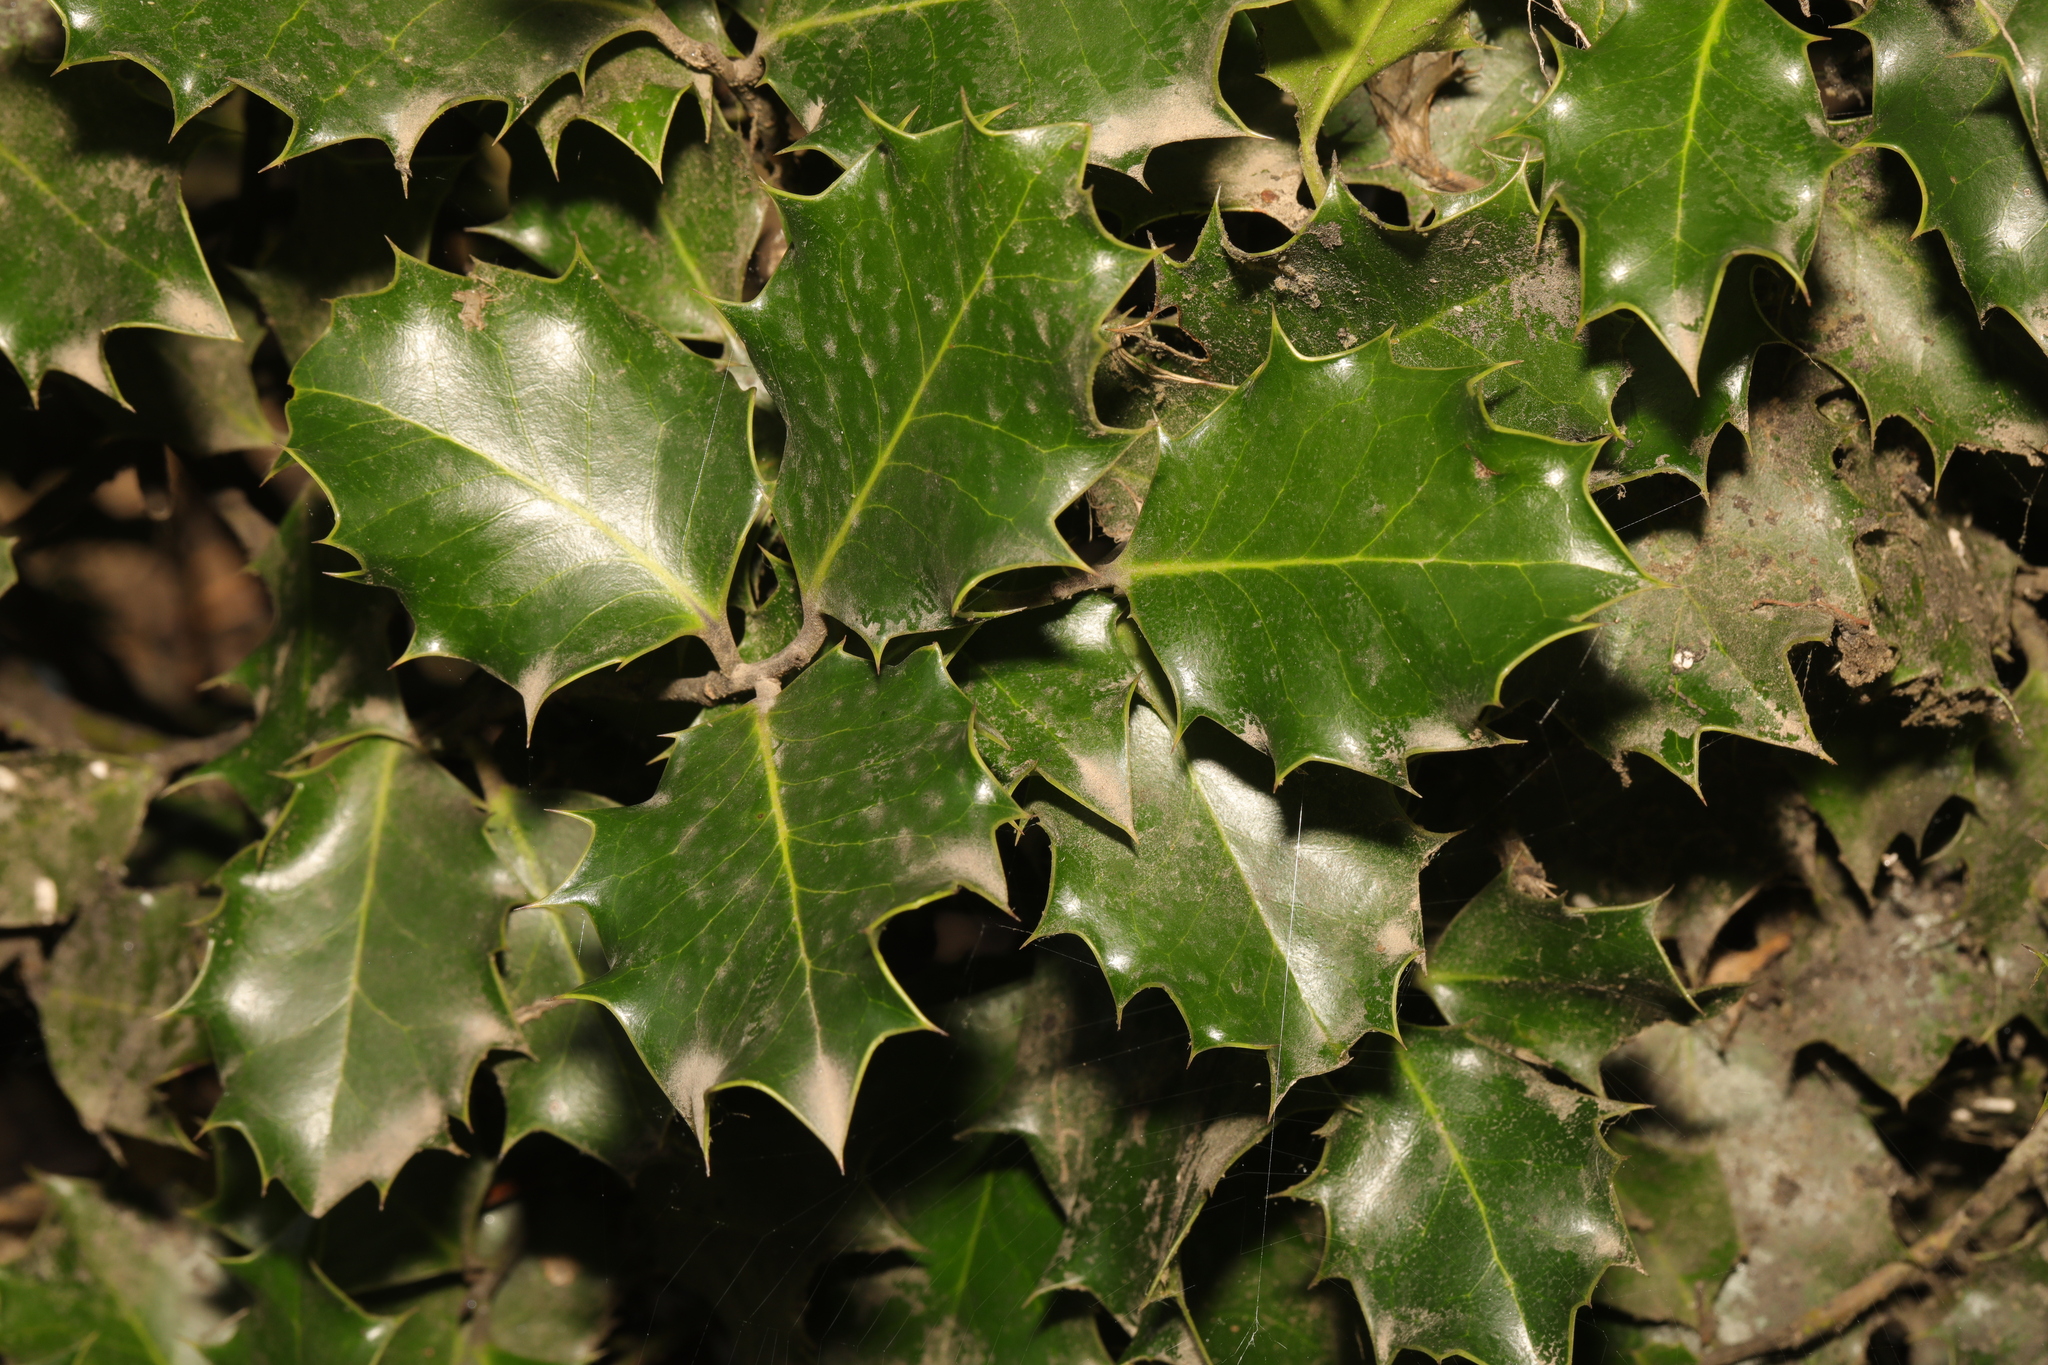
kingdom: Plantae
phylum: Tracheophyta
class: Magnoliopsida
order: Aquifoliales
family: Aquifoliaceae
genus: Ilex
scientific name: Ilex aquifolium
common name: English holly
